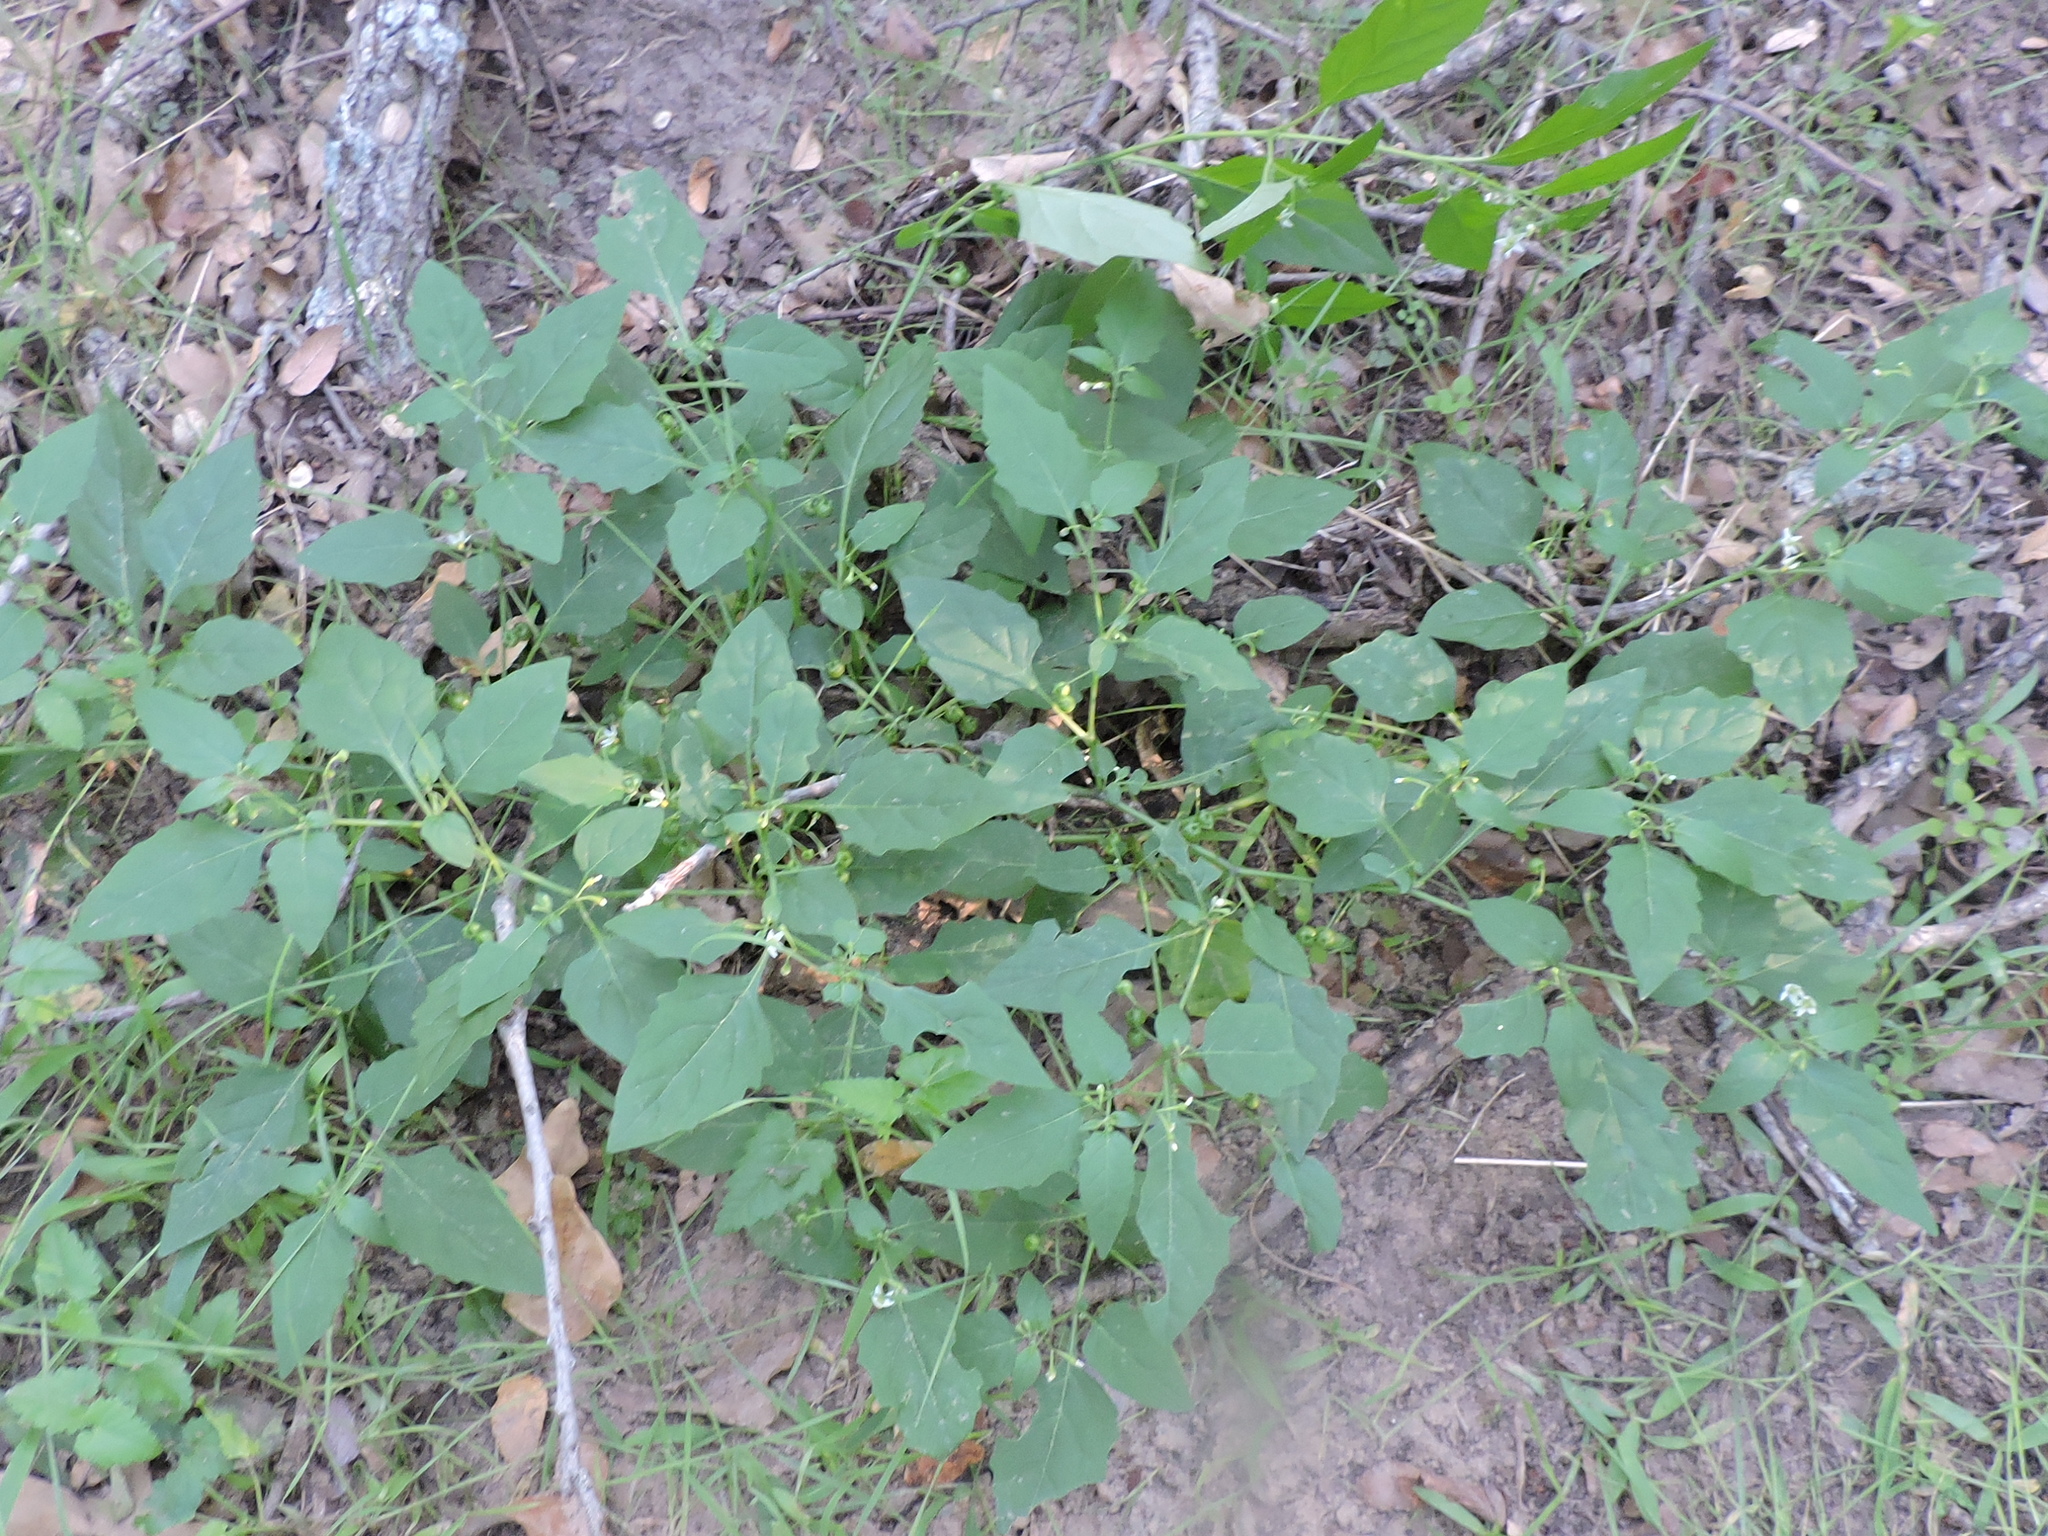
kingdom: Plantae
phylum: Tracheophyta
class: Magnoliopsida
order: Solanales
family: Solanaceae
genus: Solanum
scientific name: Solanum emulans
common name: Eastern black nightshade
